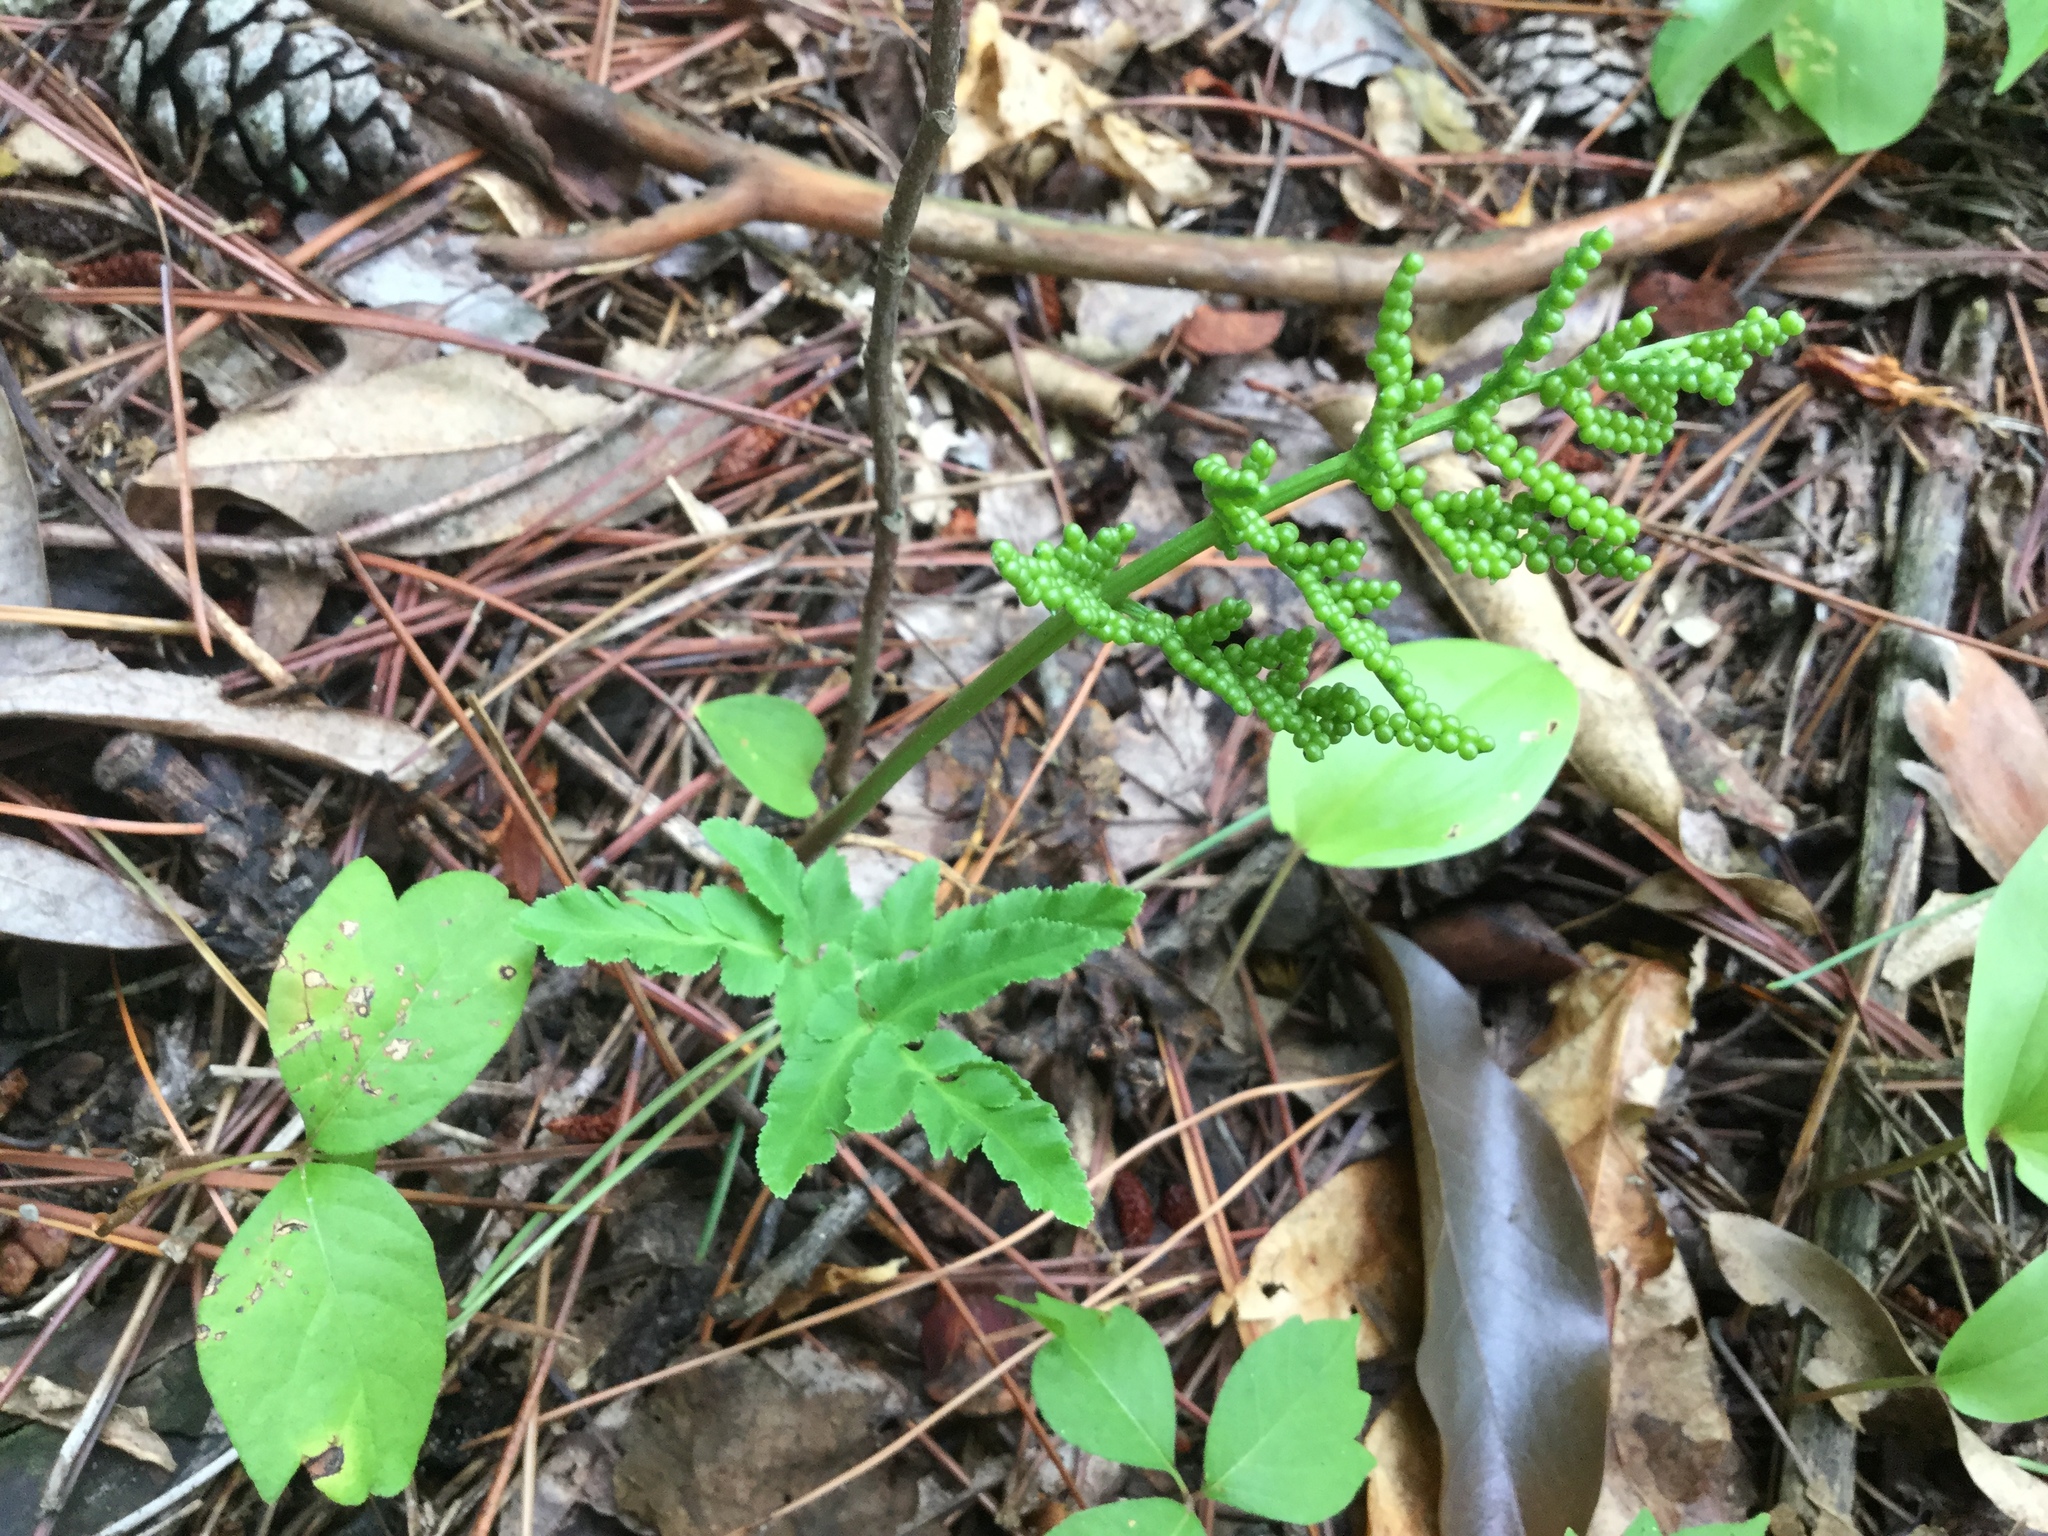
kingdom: Plantae
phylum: Tracheophyta
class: Polypodiopsida
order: Ophioglossales
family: Ophioglossaceae
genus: Sceptridium
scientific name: Sceptridium dissectum
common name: Cut-leaved grapefern
